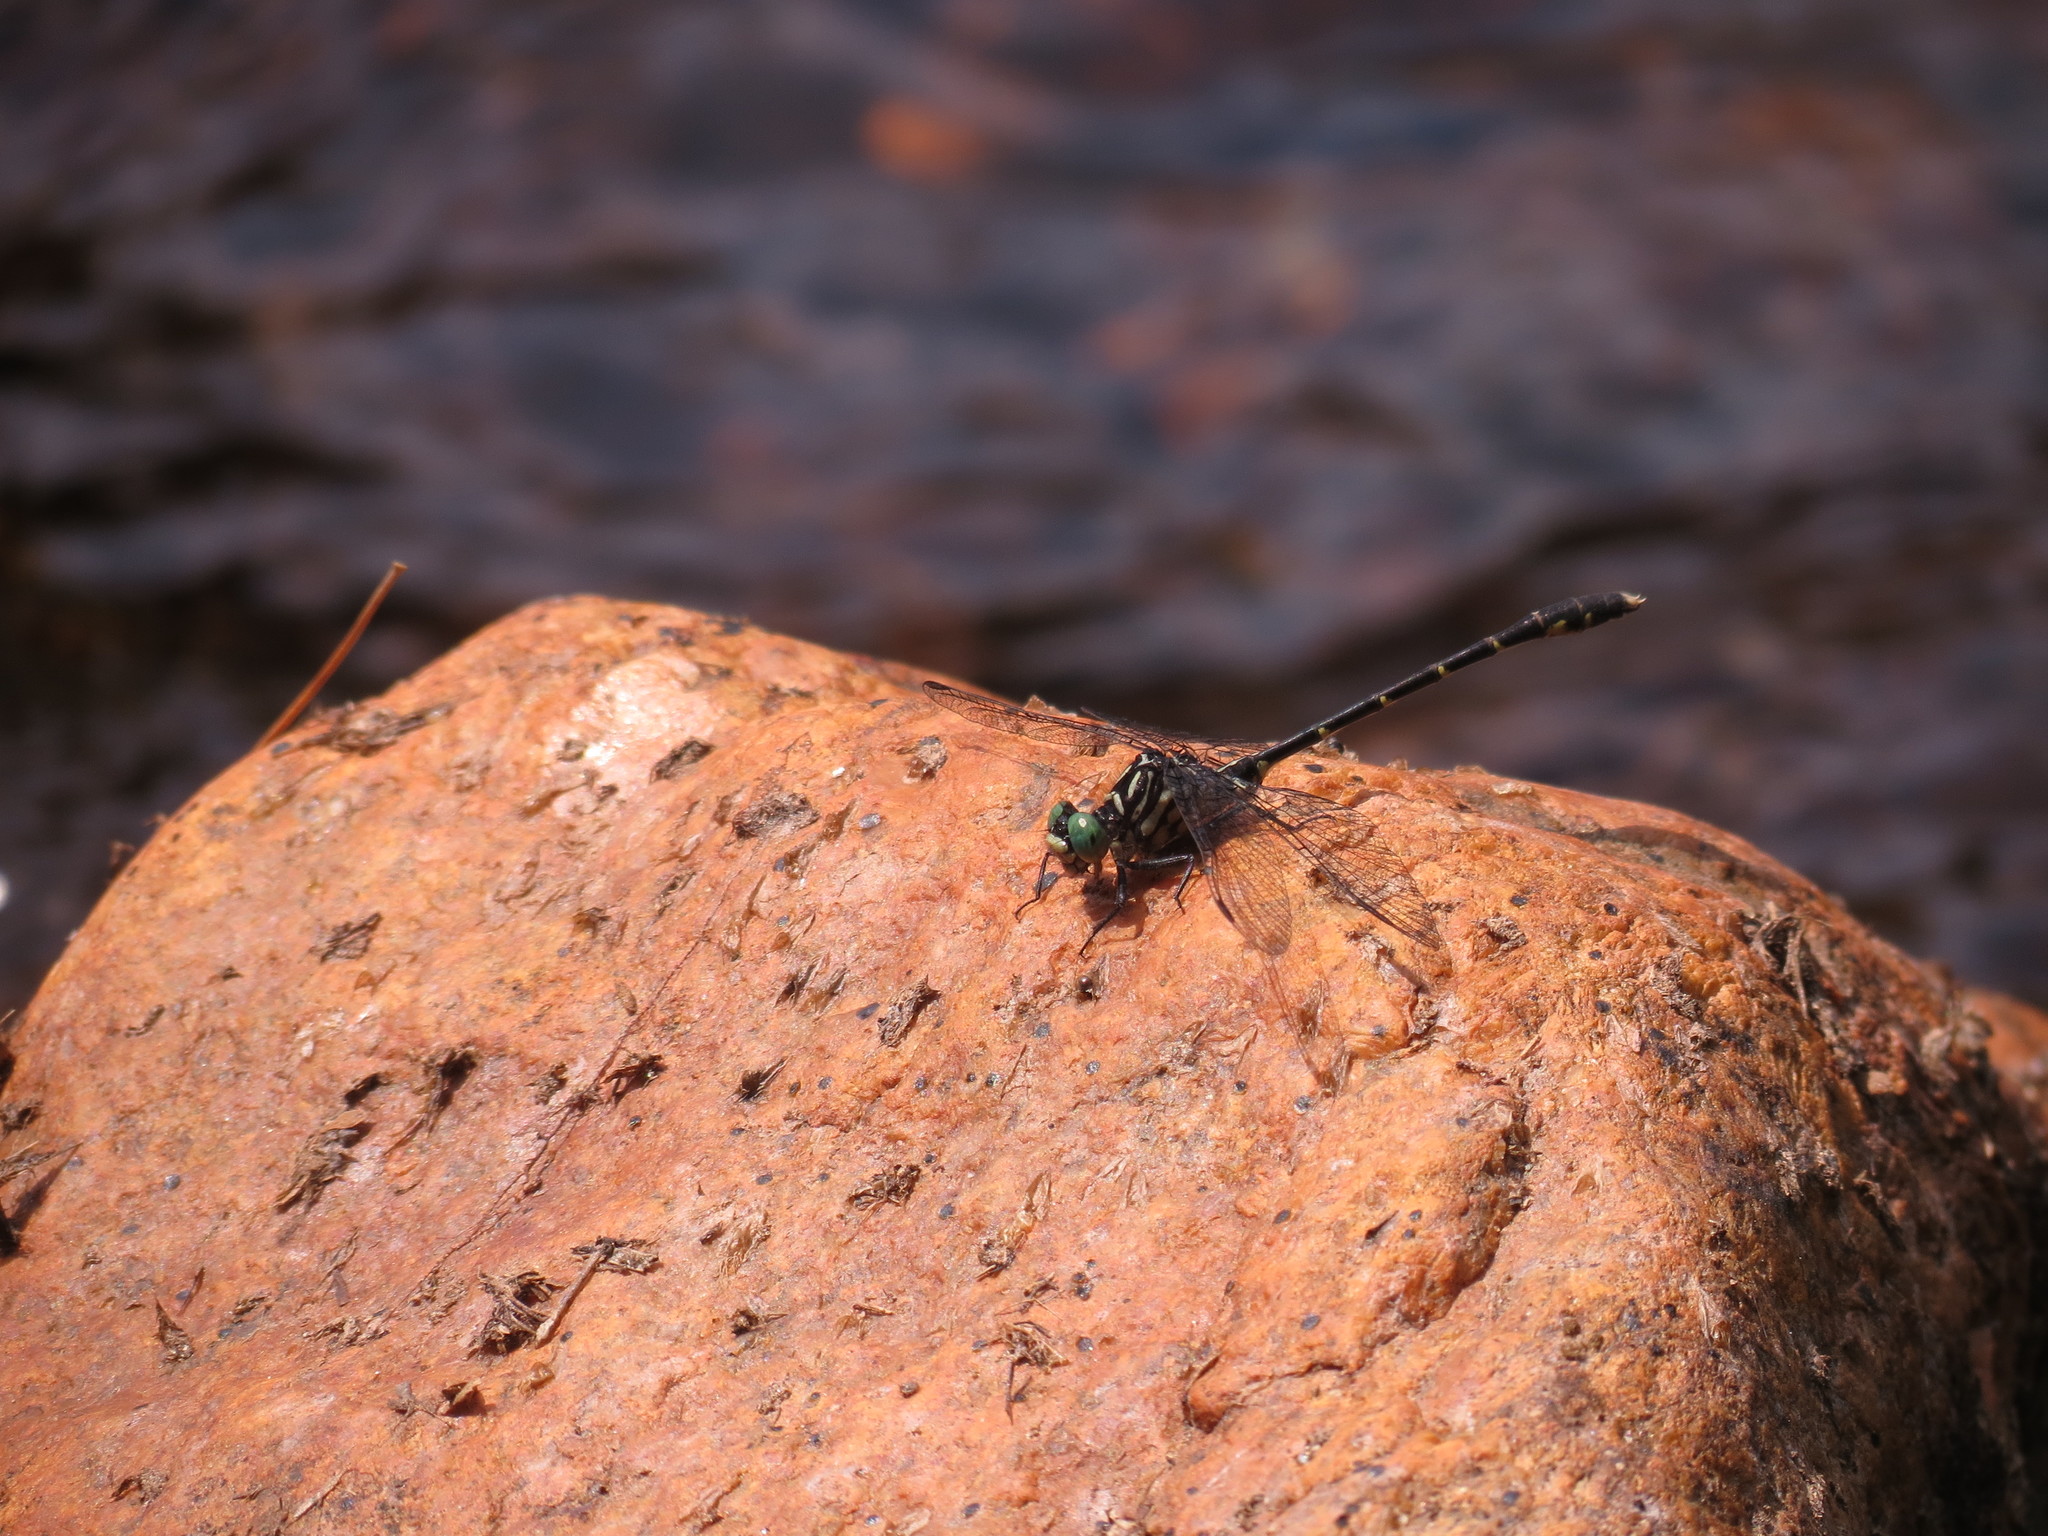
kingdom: Animalia
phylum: Arthropoda
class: Insecta
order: Odonata
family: Gomphidae
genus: Stylogomphus
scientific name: Stylogomphus albistylus
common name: Eastern least clubtail
